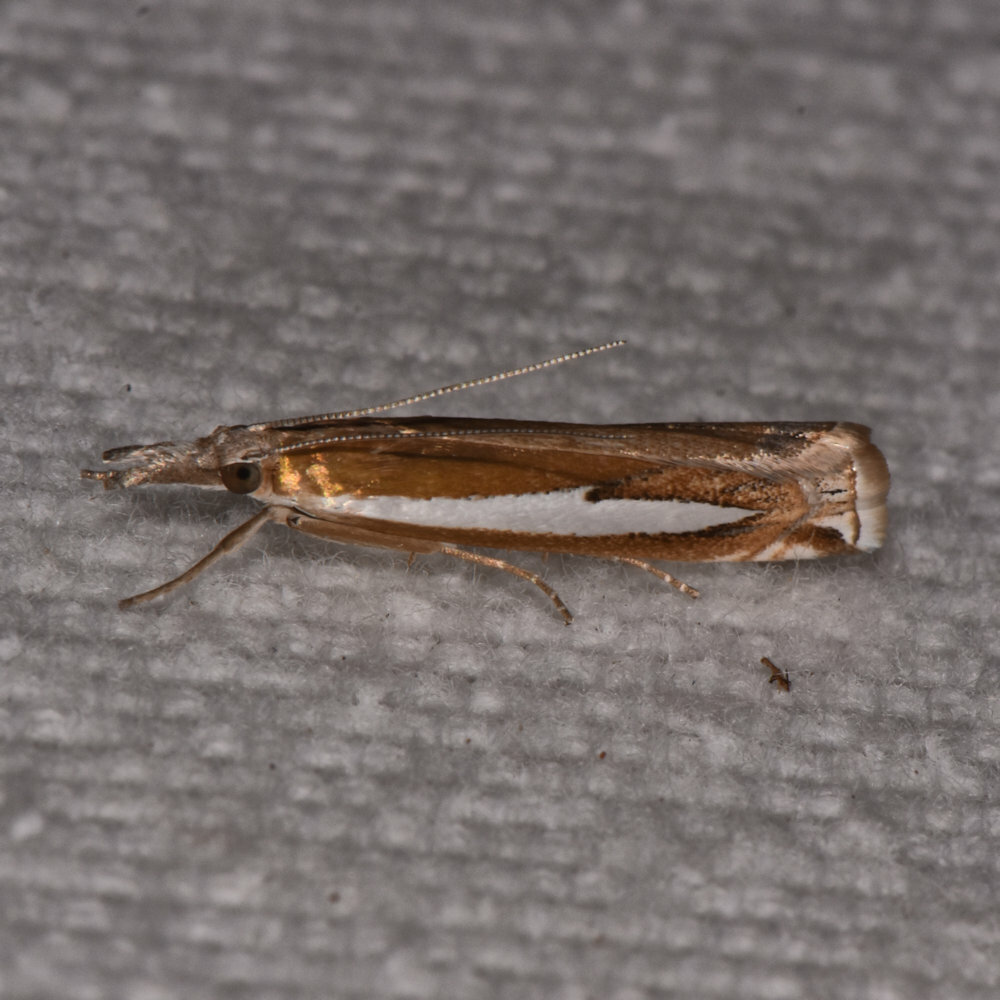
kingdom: Animalia
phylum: Arthropoda
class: Insecta
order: Lepidoptera
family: Crambidae
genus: Crambus
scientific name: Crambus praefectellus
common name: Common grass-veneer
